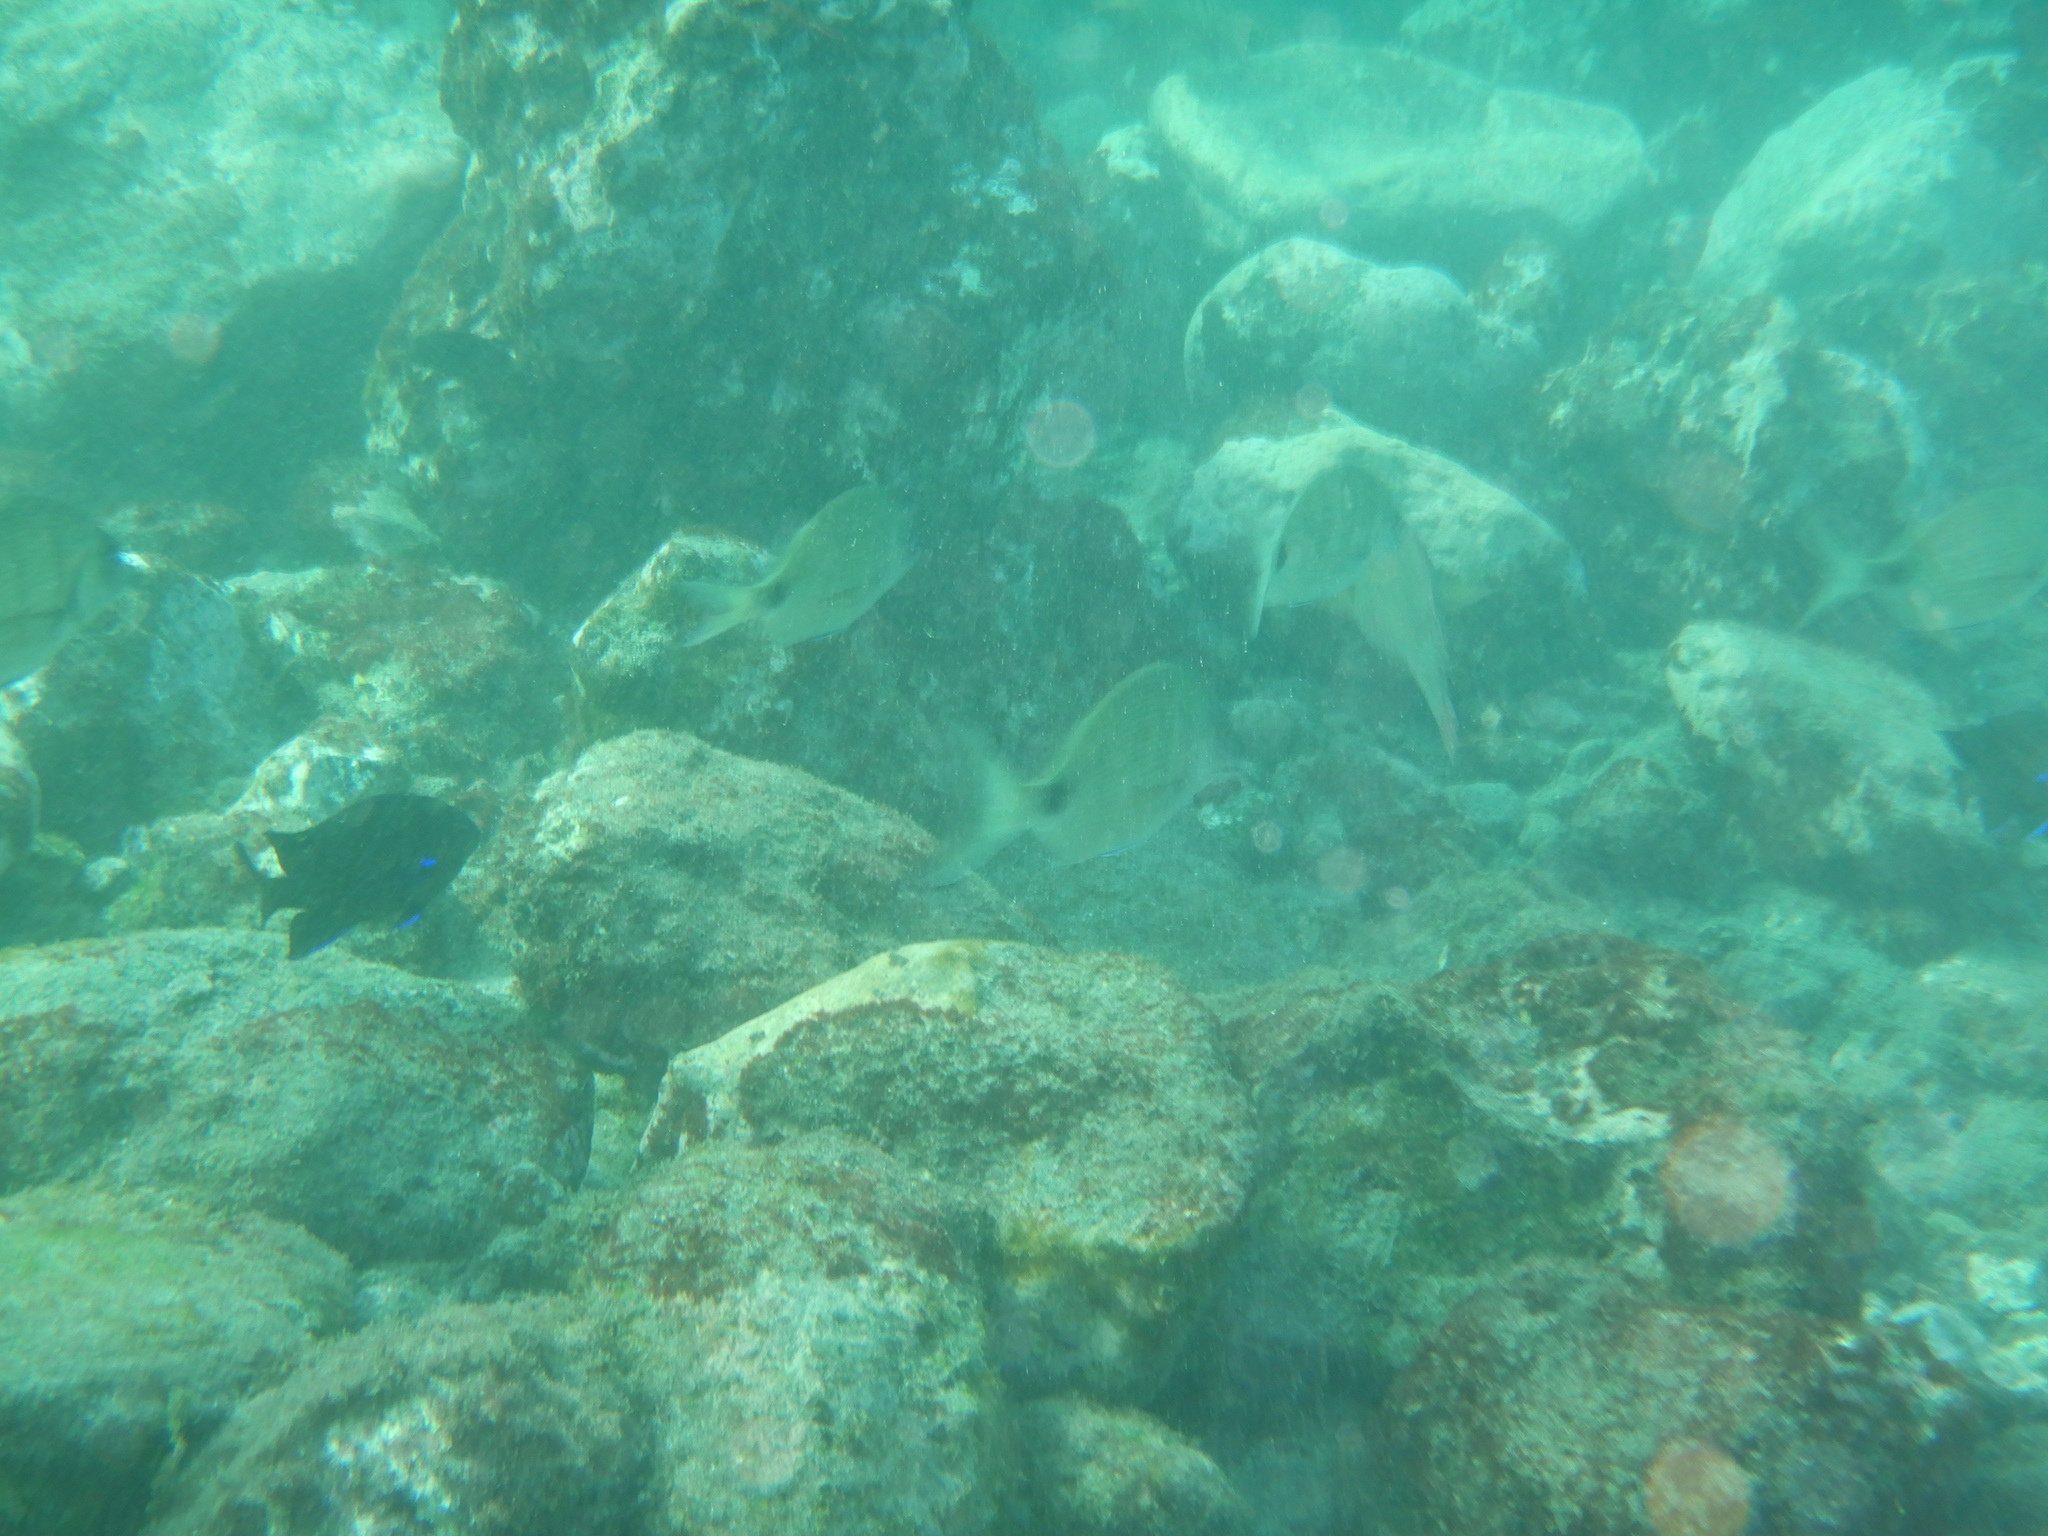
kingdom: Animalia
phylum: Chordata
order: Perciformes
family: Sparidae
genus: Diplodus
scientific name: Diplodus cadenati
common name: Moroccan white seabream
